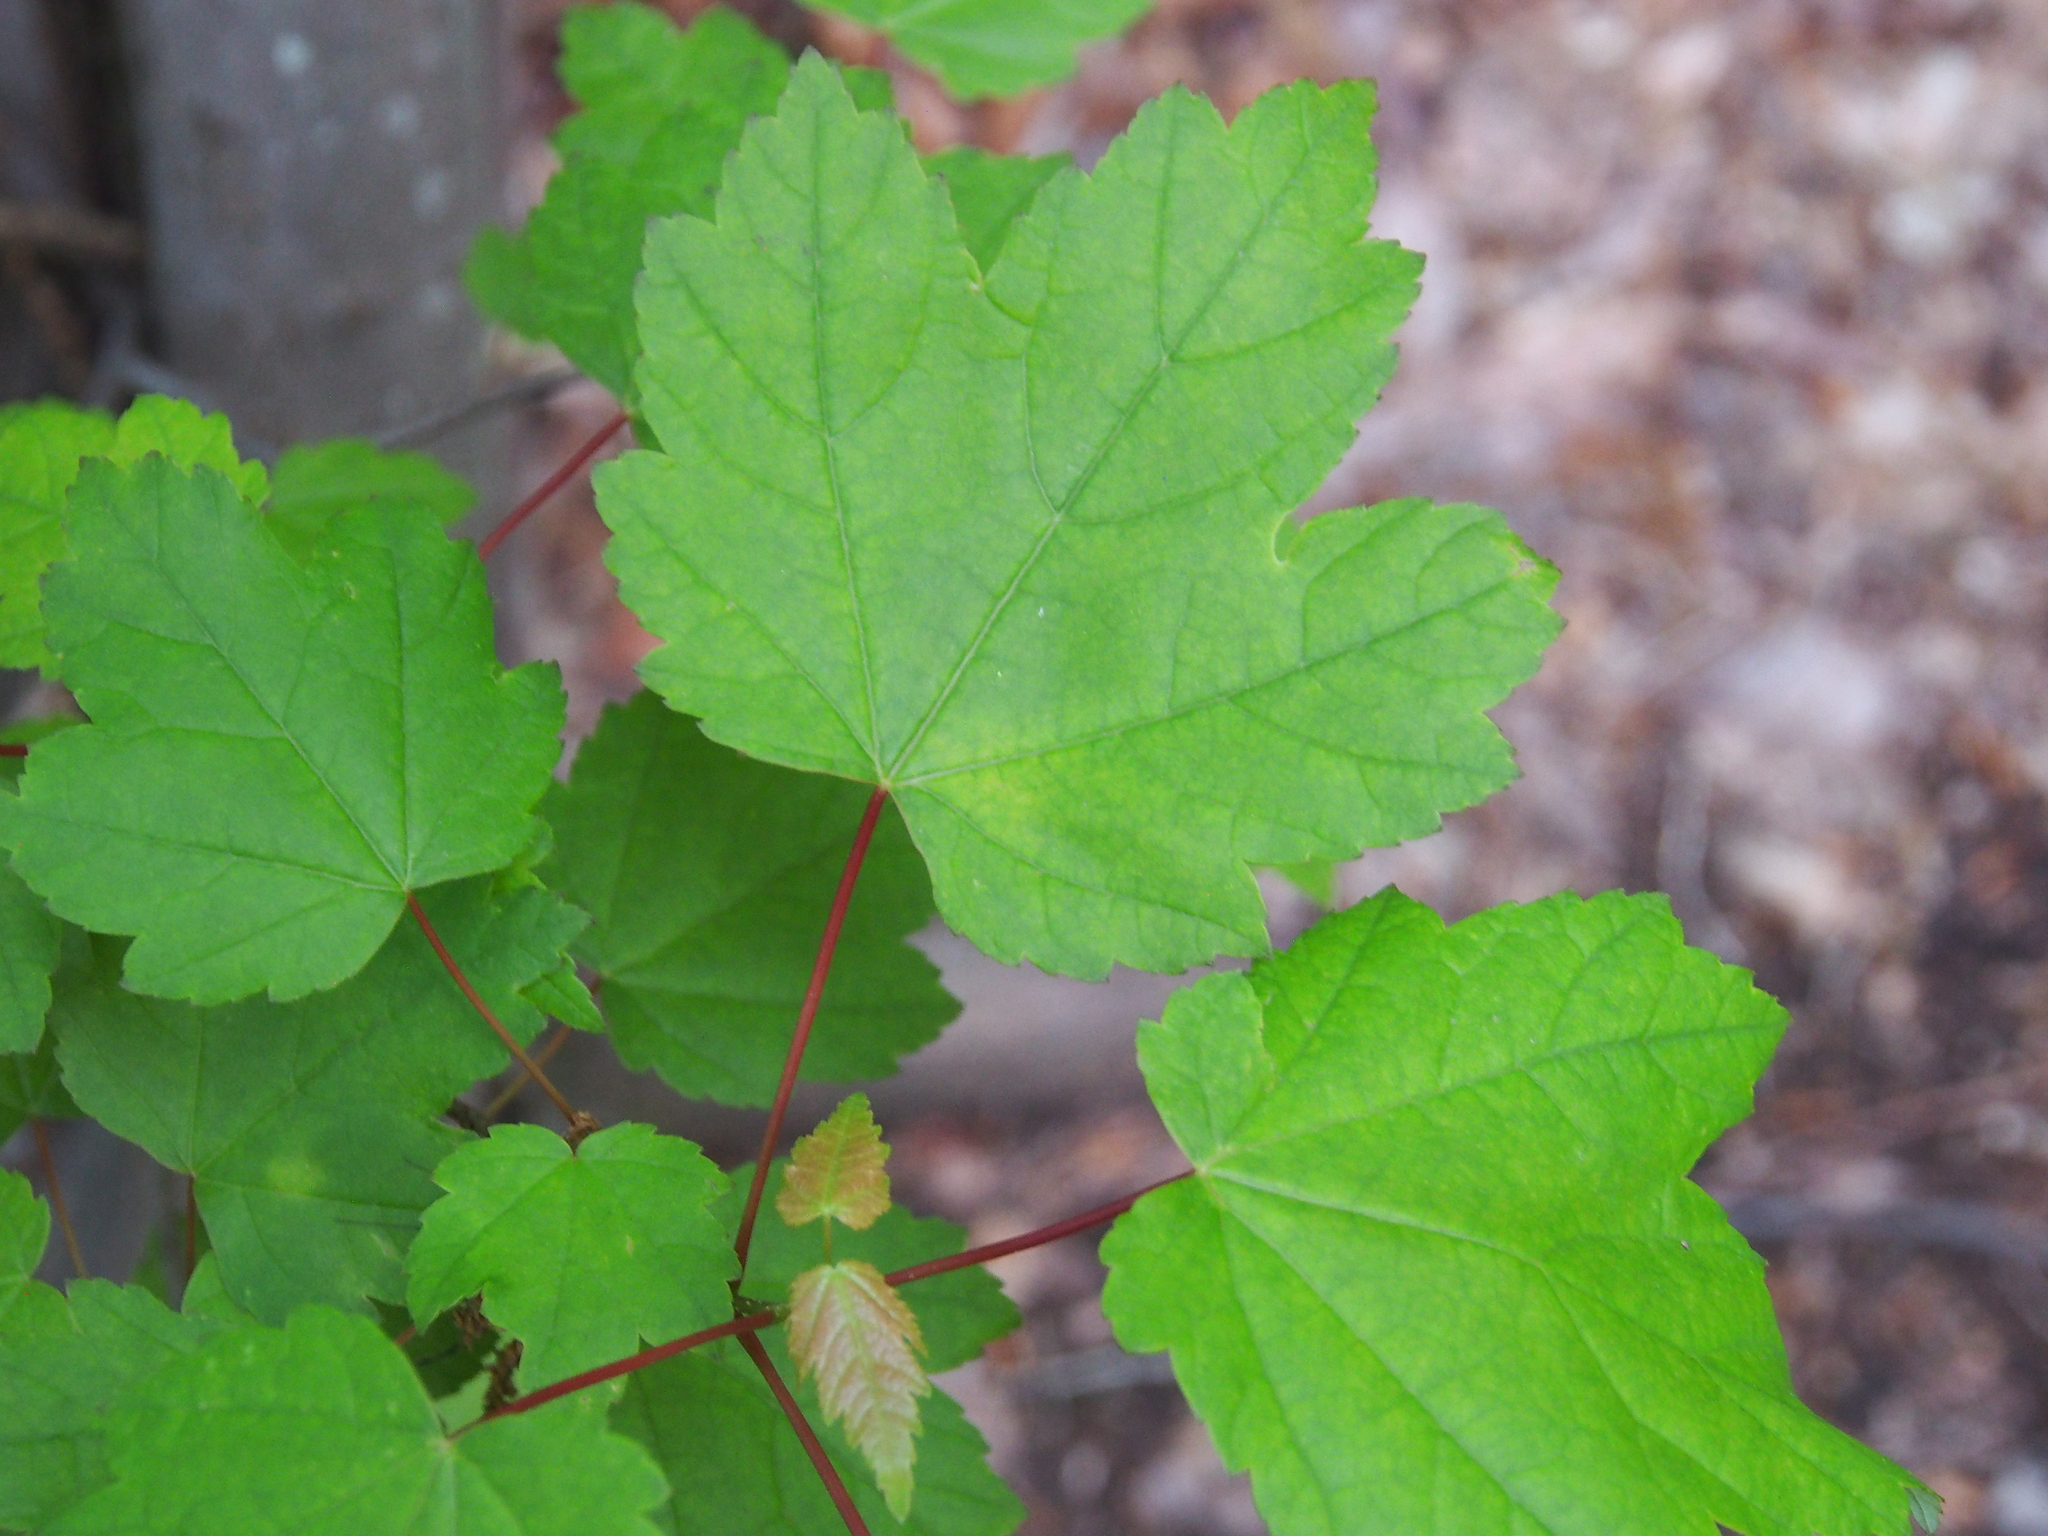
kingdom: Plantae
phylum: Tracheophyta
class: Magnoliopsida
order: Sapindales
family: Sapindaceae
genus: Acer
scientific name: Acer rubrum
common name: Red maple
